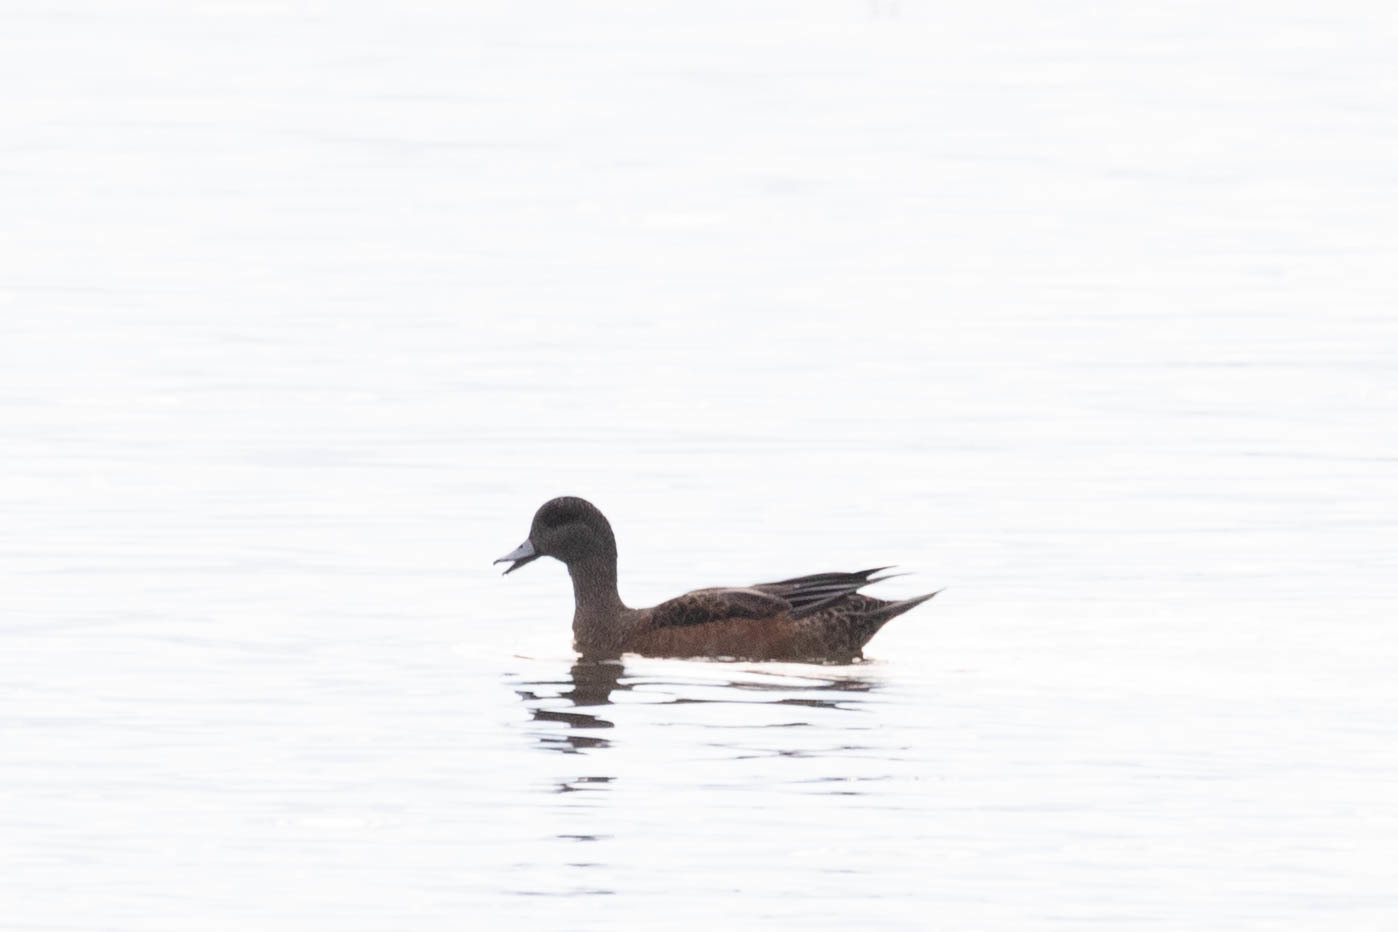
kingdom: Animalia
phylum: Chordata
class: Aves
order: Anseriformes
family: Anatidae
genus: Mareca
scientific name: Mareca americana
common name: American wigeon
